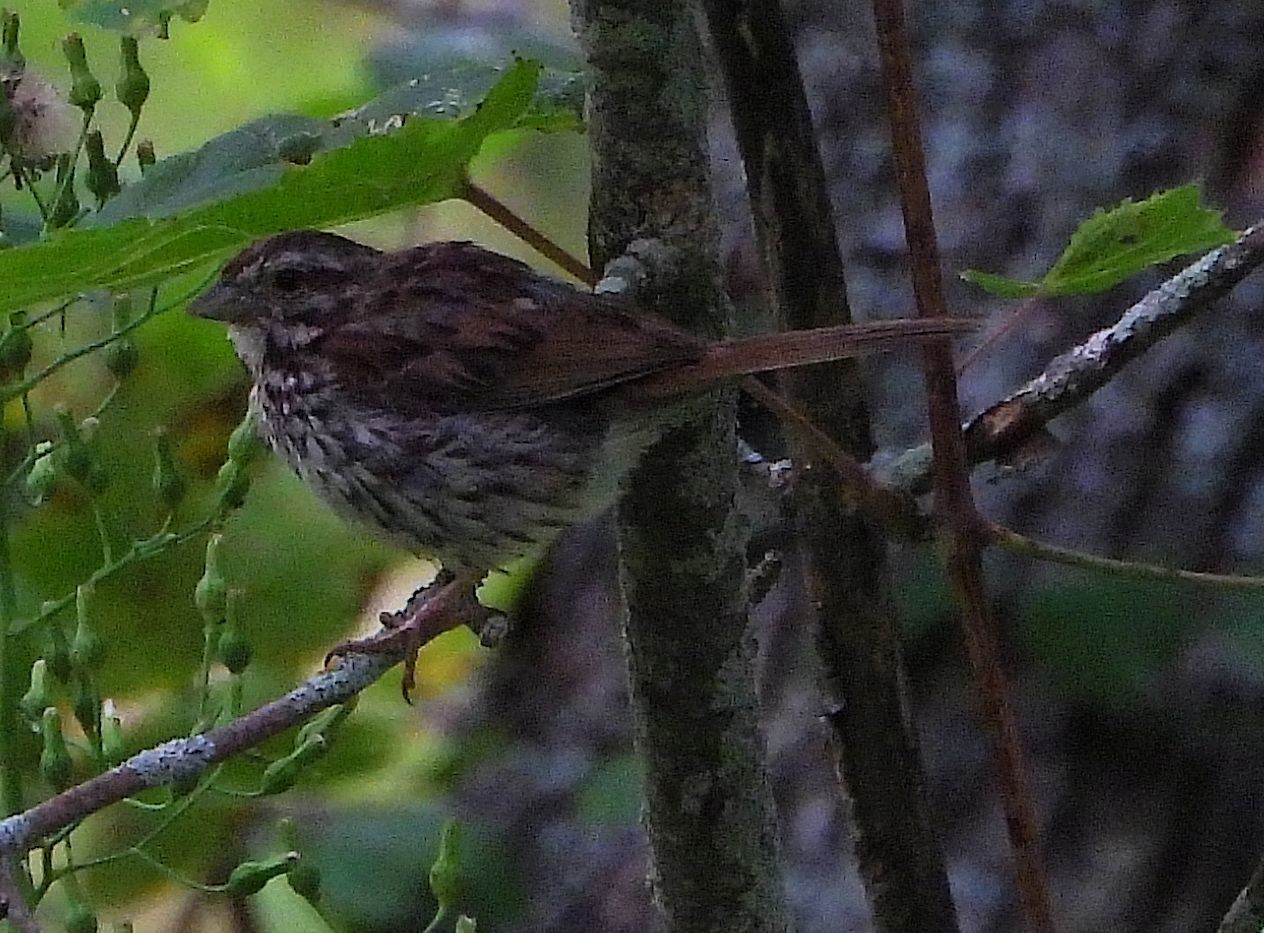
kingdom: Animalia
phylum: Chordata
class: Aves
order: Passeriformes
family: Passerellidae
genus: Melospiza
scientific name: Melospiza melodia
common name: Song sparrow
